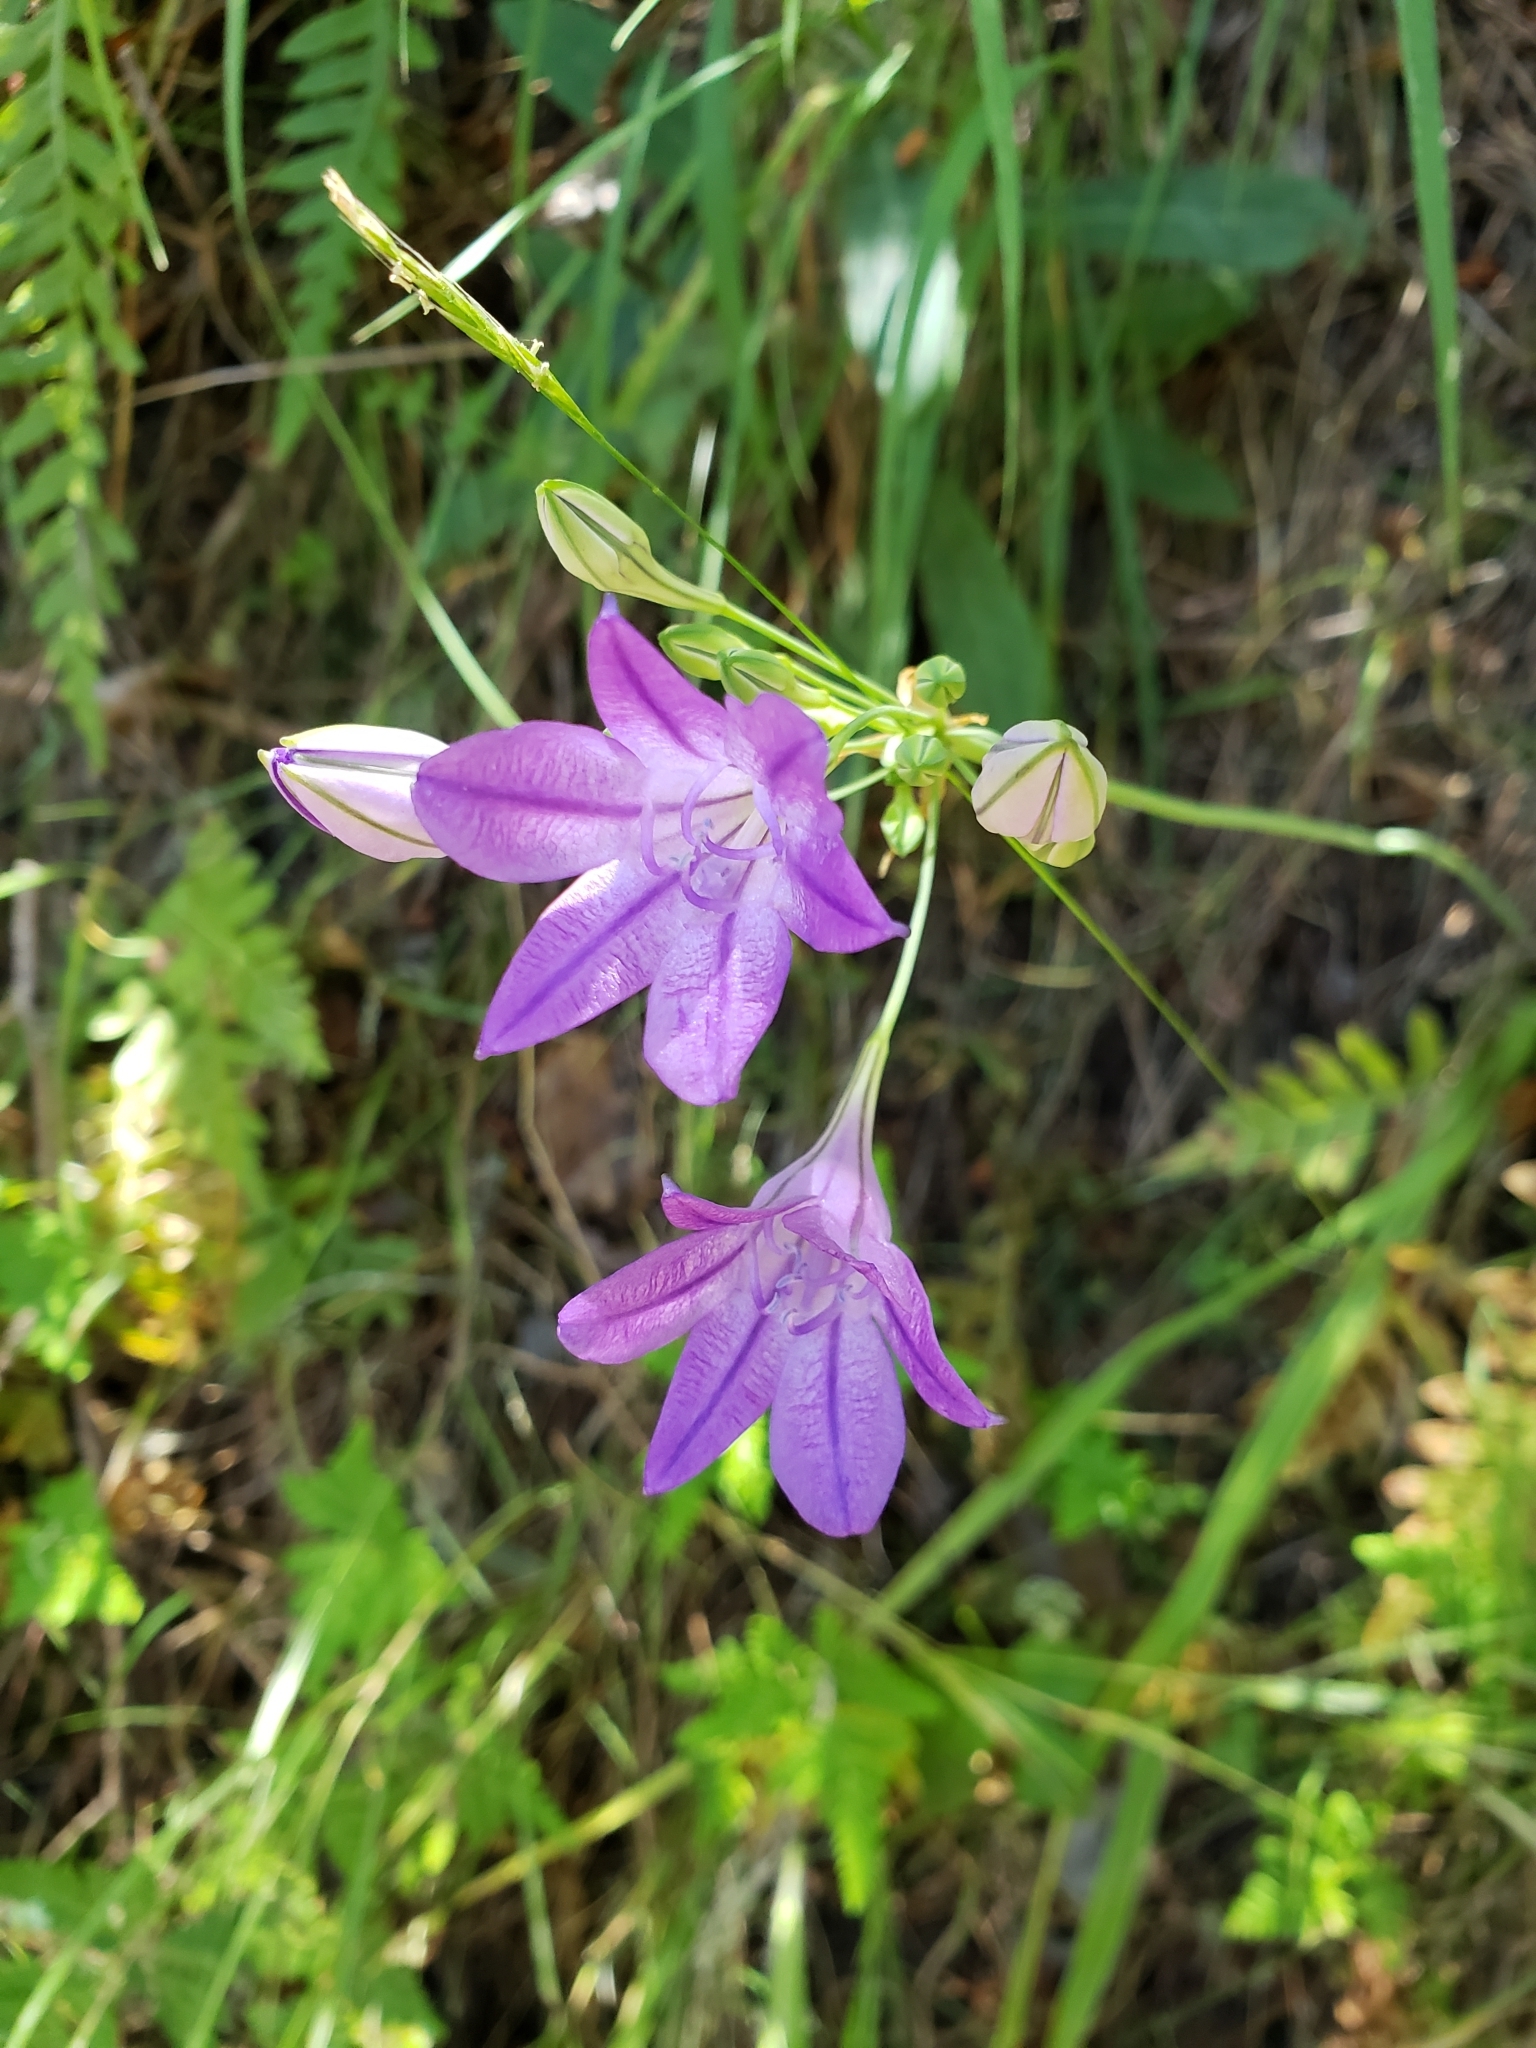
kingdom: Plantae
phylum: Tracheophyta
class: Liliopsida
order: Asparagales
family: Asparagaceae
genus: Triteleia
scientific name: Triteleia laxa
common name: Triplet-lily
